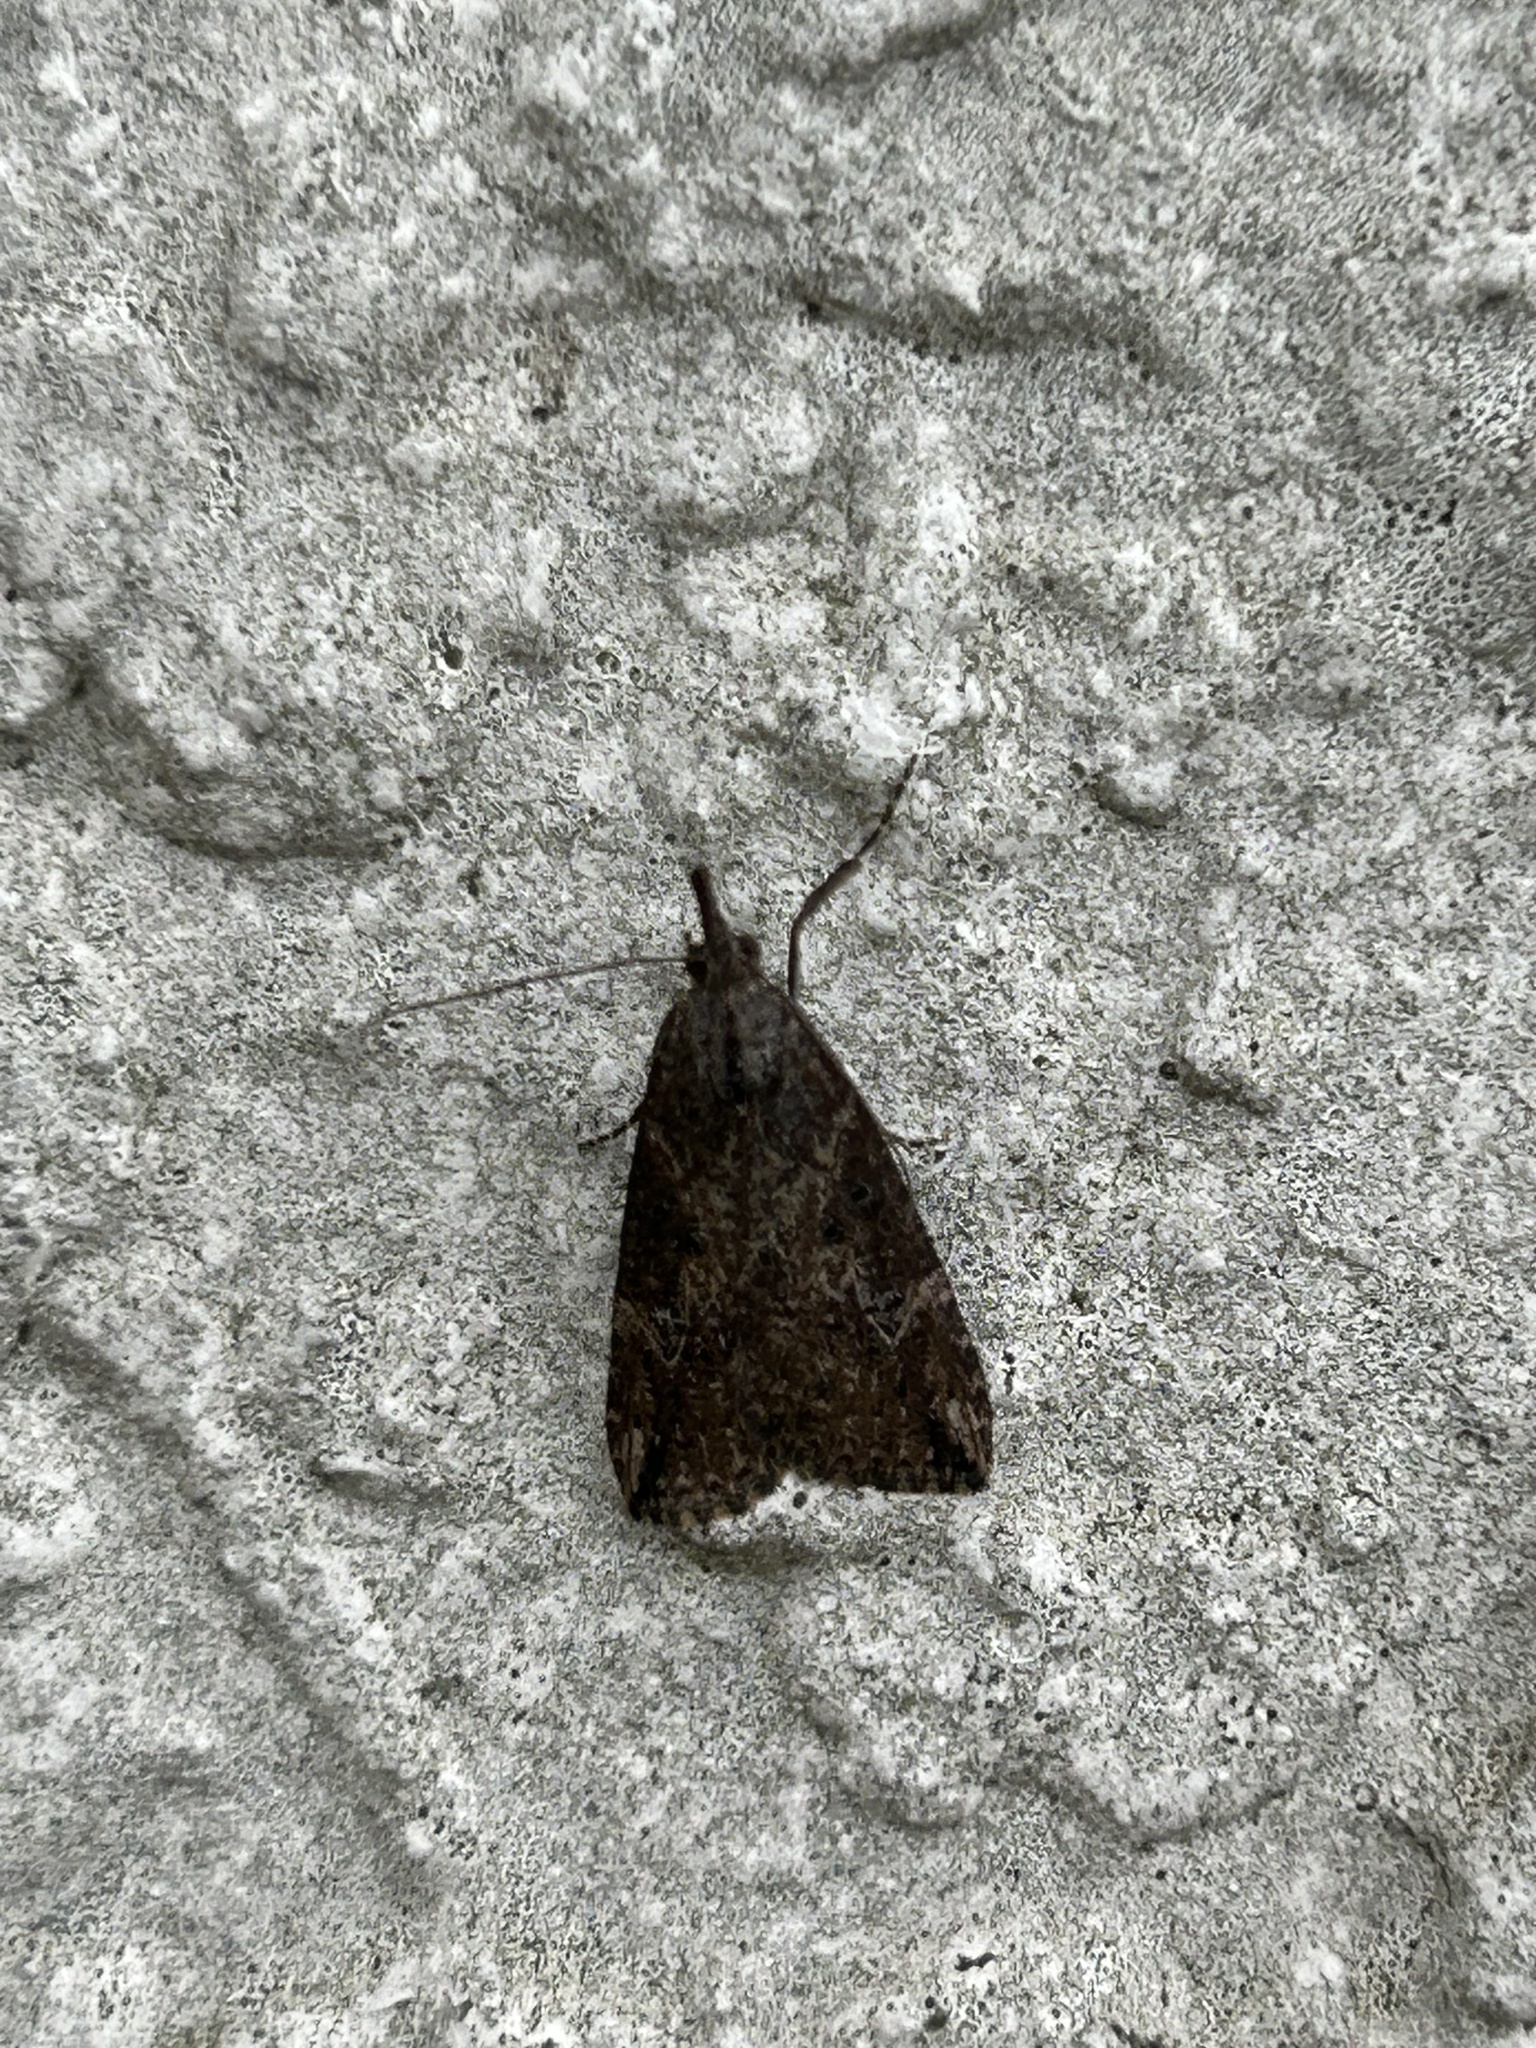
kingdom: Animalia
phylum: Arthropoda
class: Insecta
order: Lepidoptera
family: Erebidae
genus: Hypena
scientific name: Hypena humuli
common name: Hop vine snout
